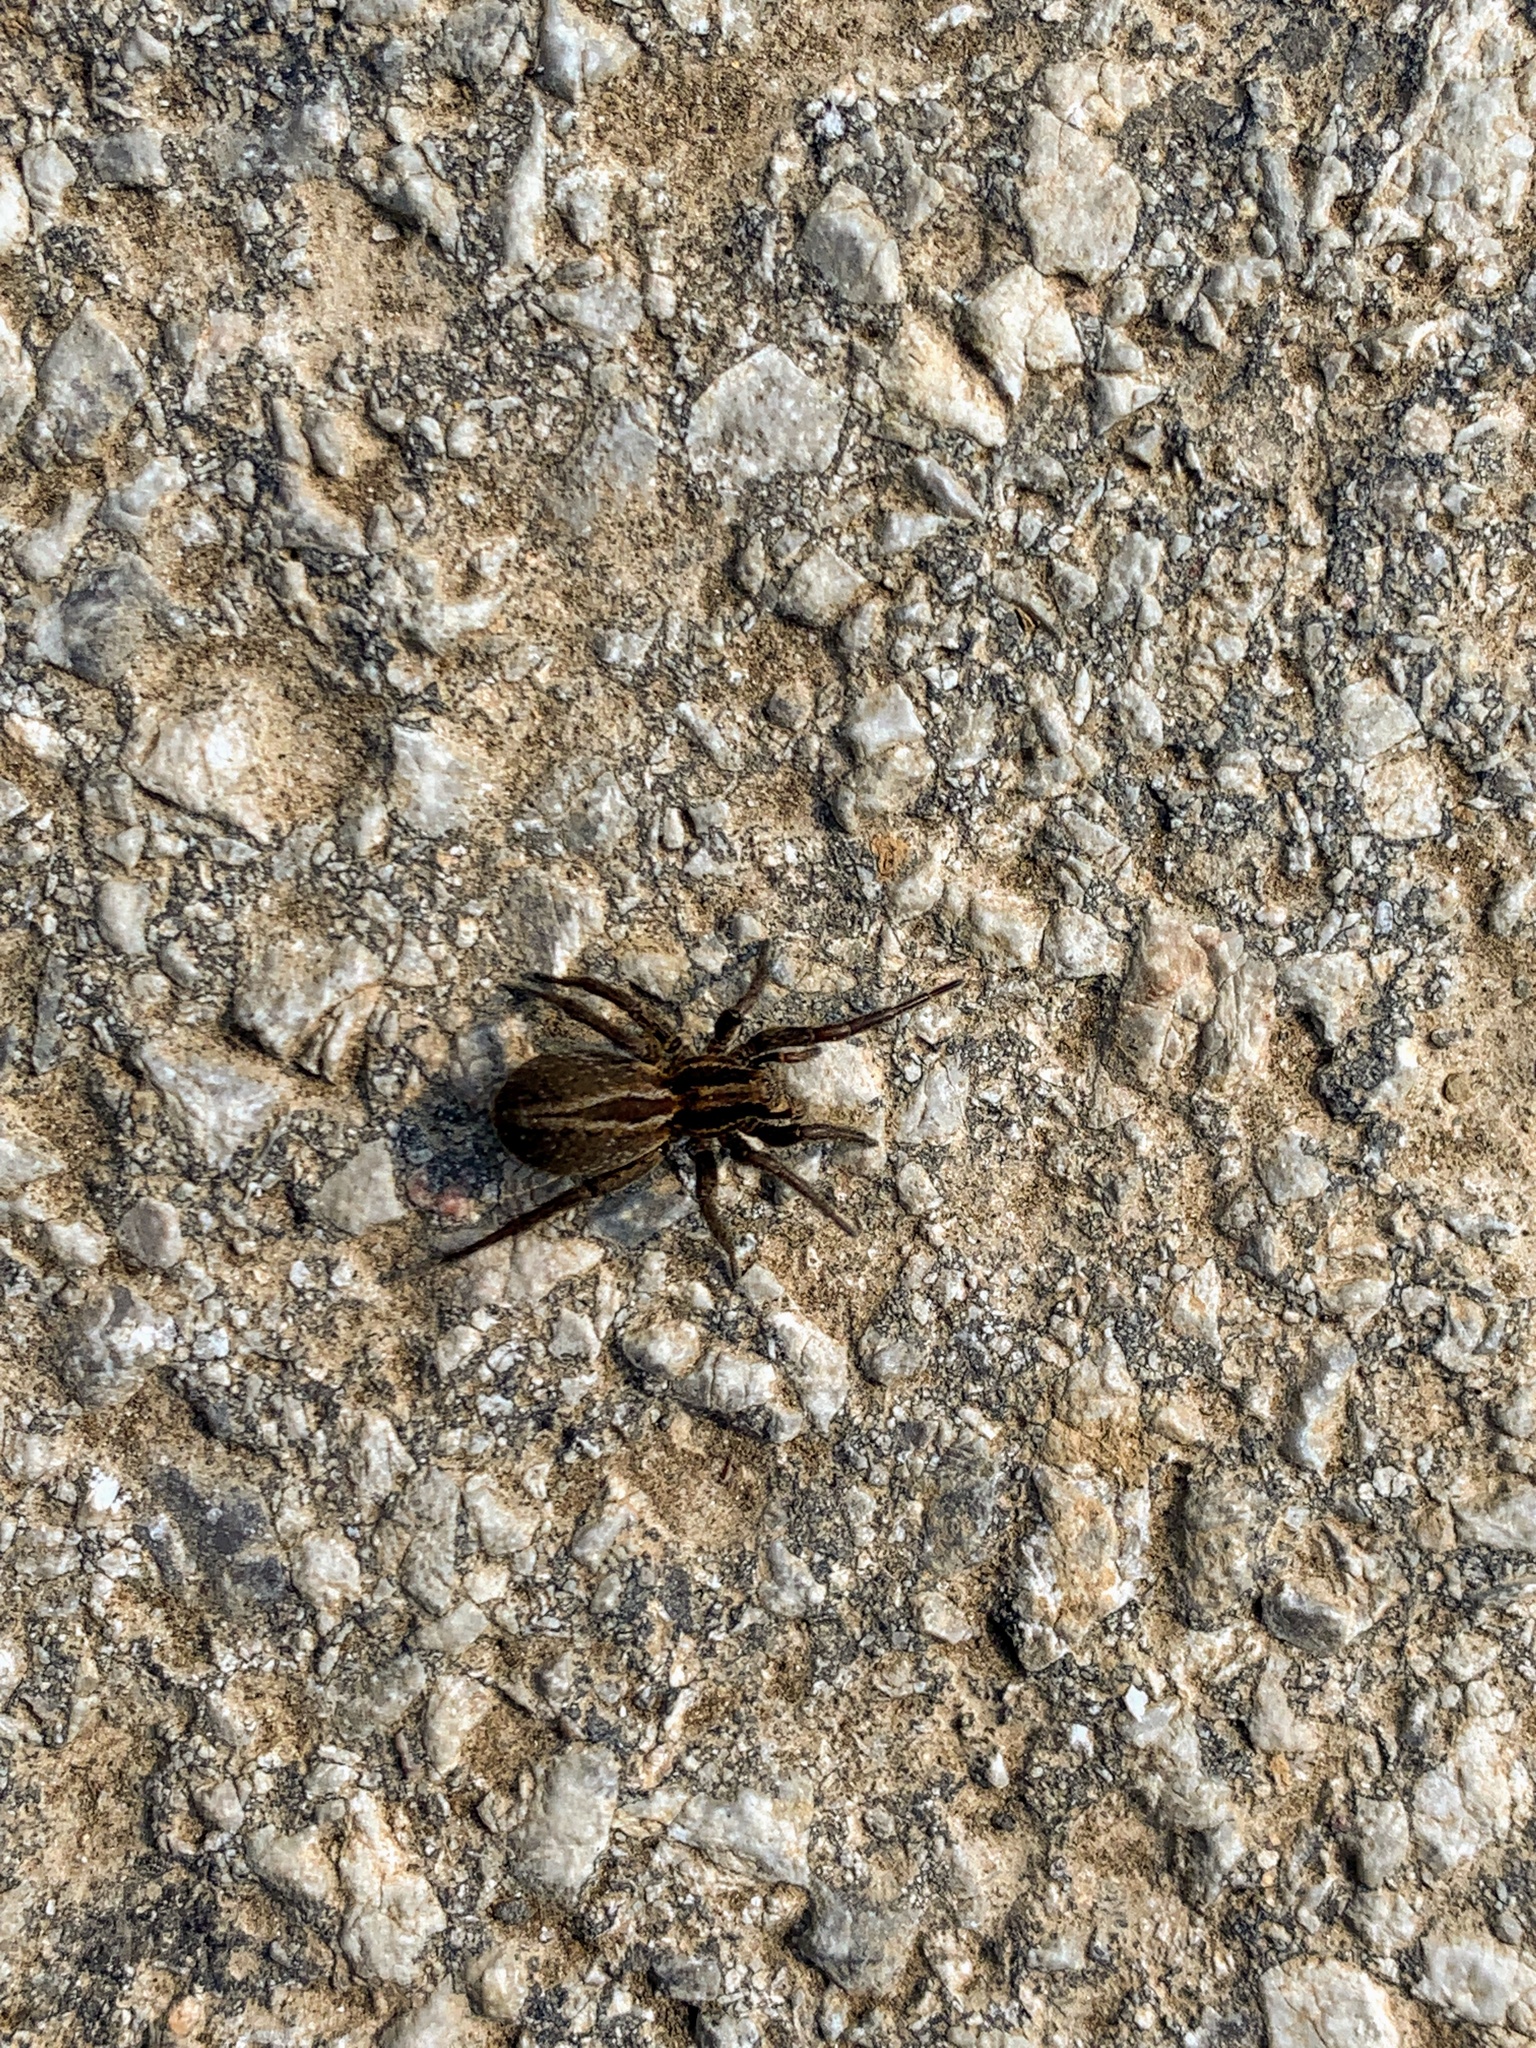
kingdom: Animalia
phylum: Arthropoda
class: Arachnida
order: Araneae
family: Lycosidae
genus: Alopecosa
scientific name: Alopecosa
